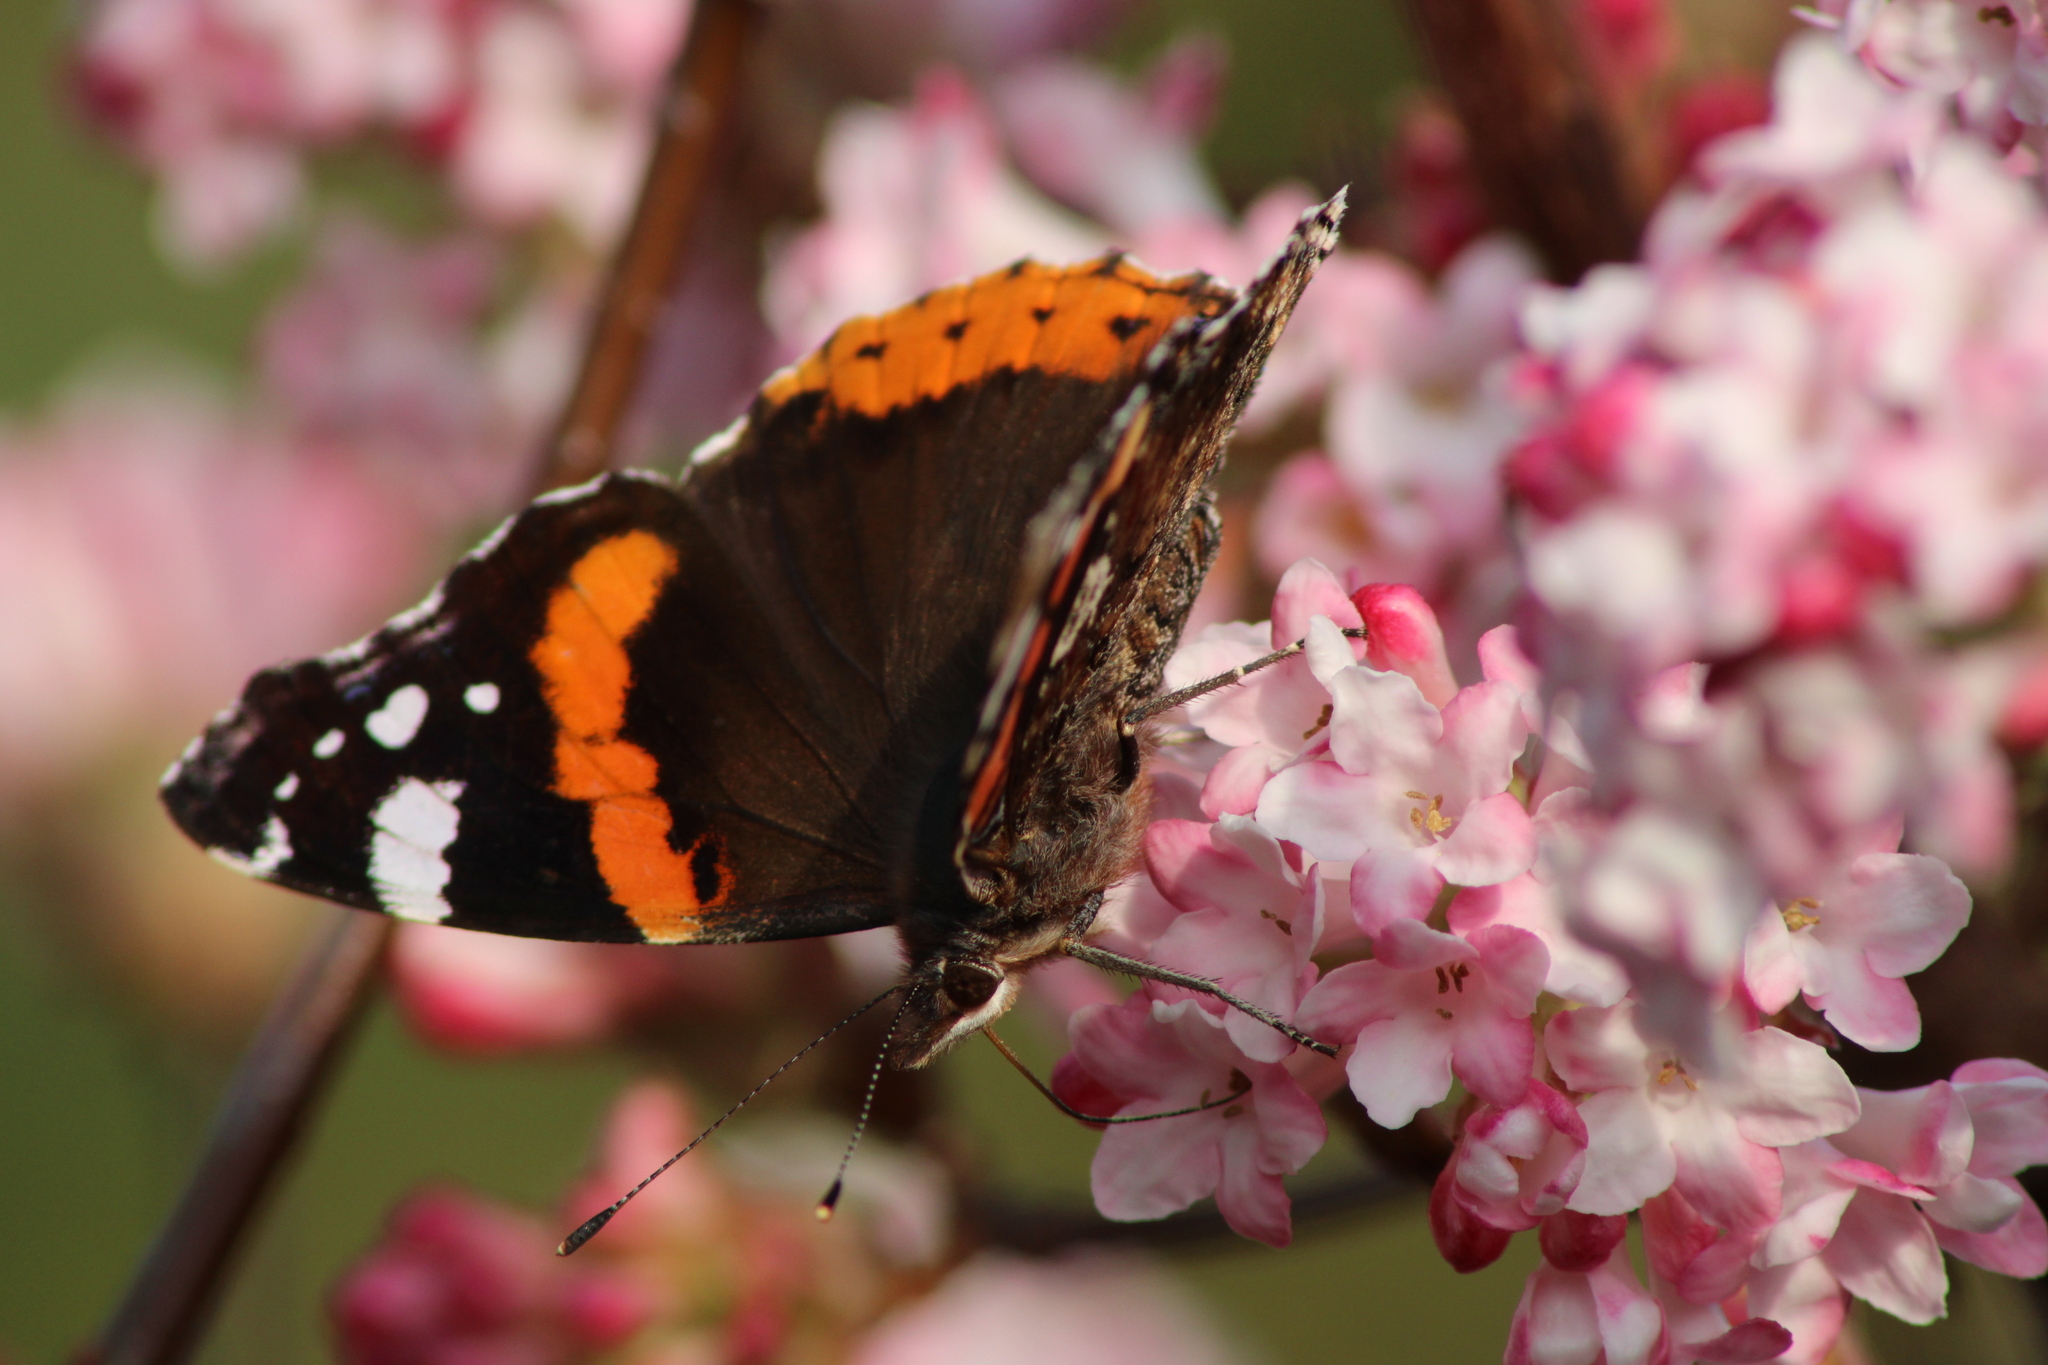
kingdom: Animalia
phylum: Arthropoda
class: Insecta
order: Lepidoptera
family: Nymphalidae
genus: Vanessa
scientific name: Vanessa atalanta
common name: Red admiral
